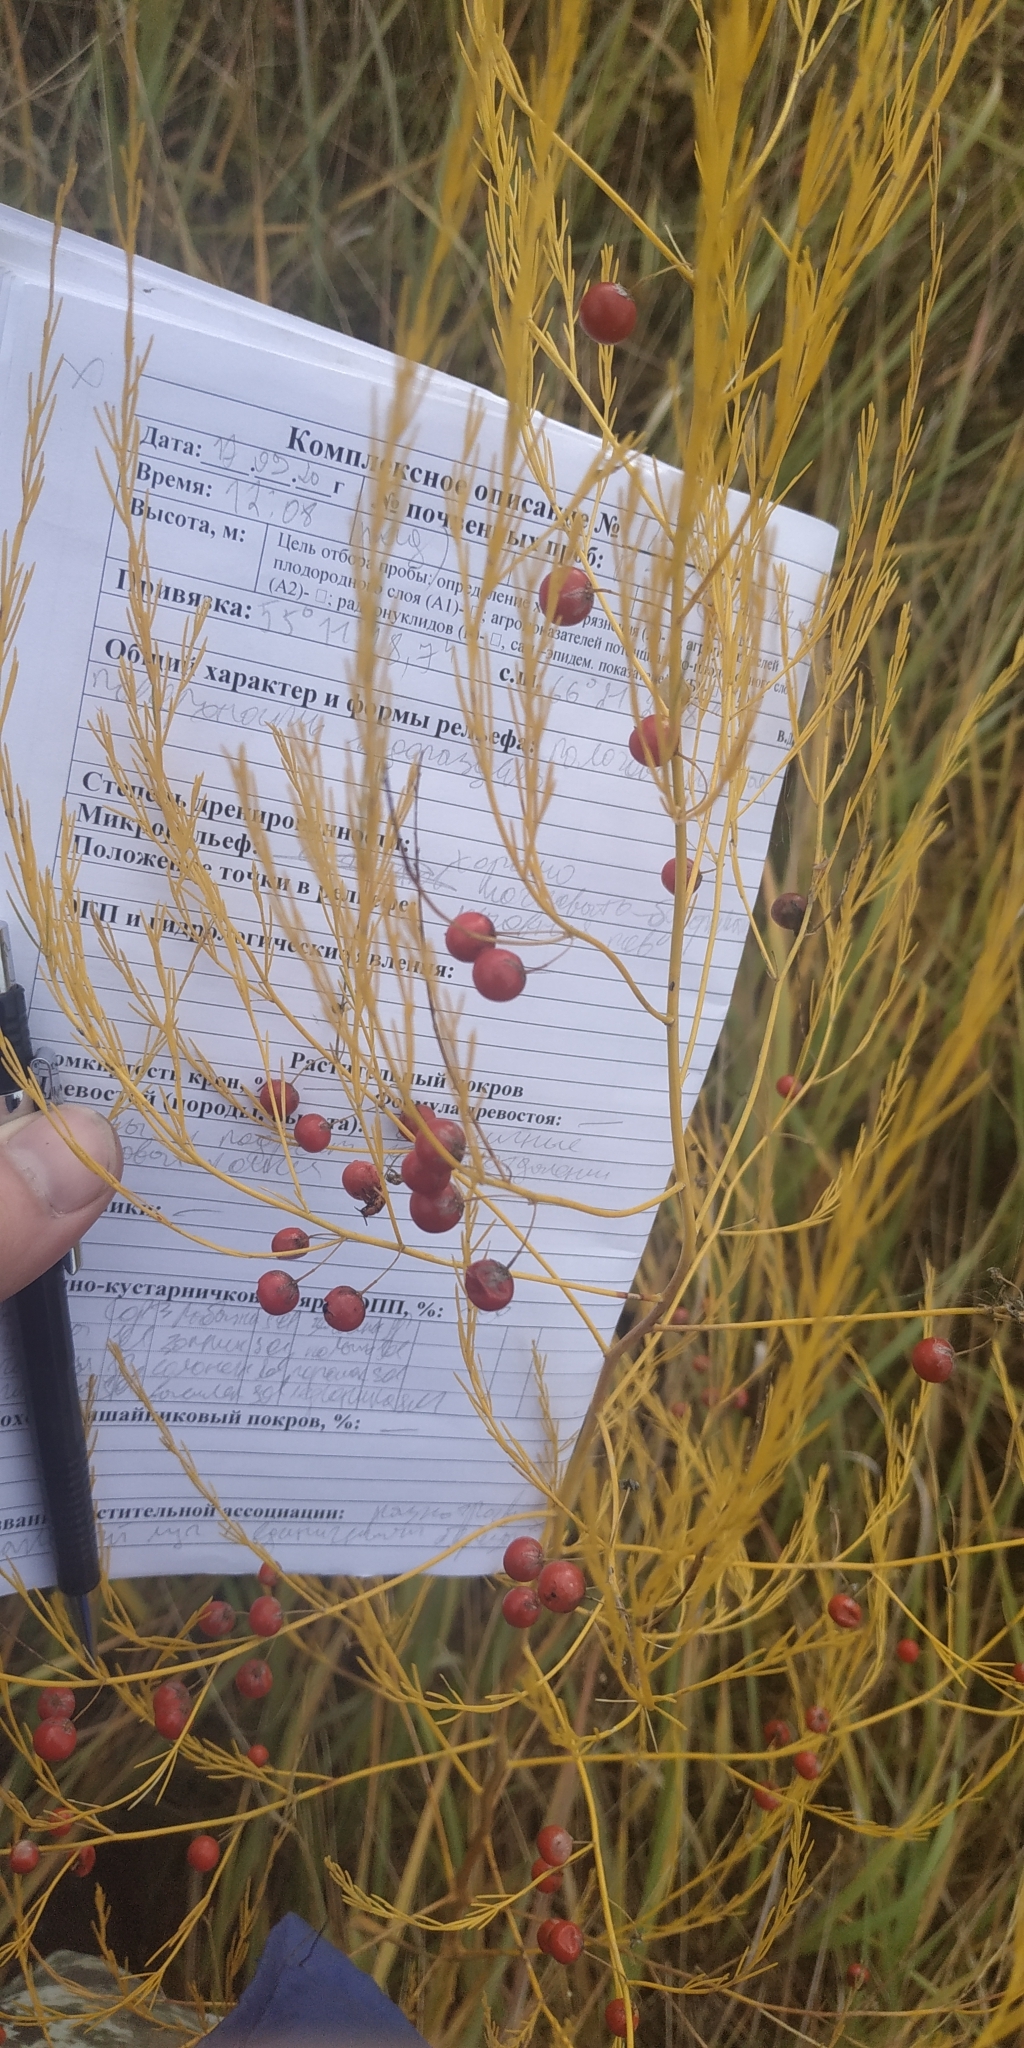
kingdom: Plantae
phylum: Tracheophyta
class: Liliopsida
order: Asparagales
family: Asparagaceae
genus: Asparagus
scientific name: Asparagus officinalis
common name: Garden asparagus
